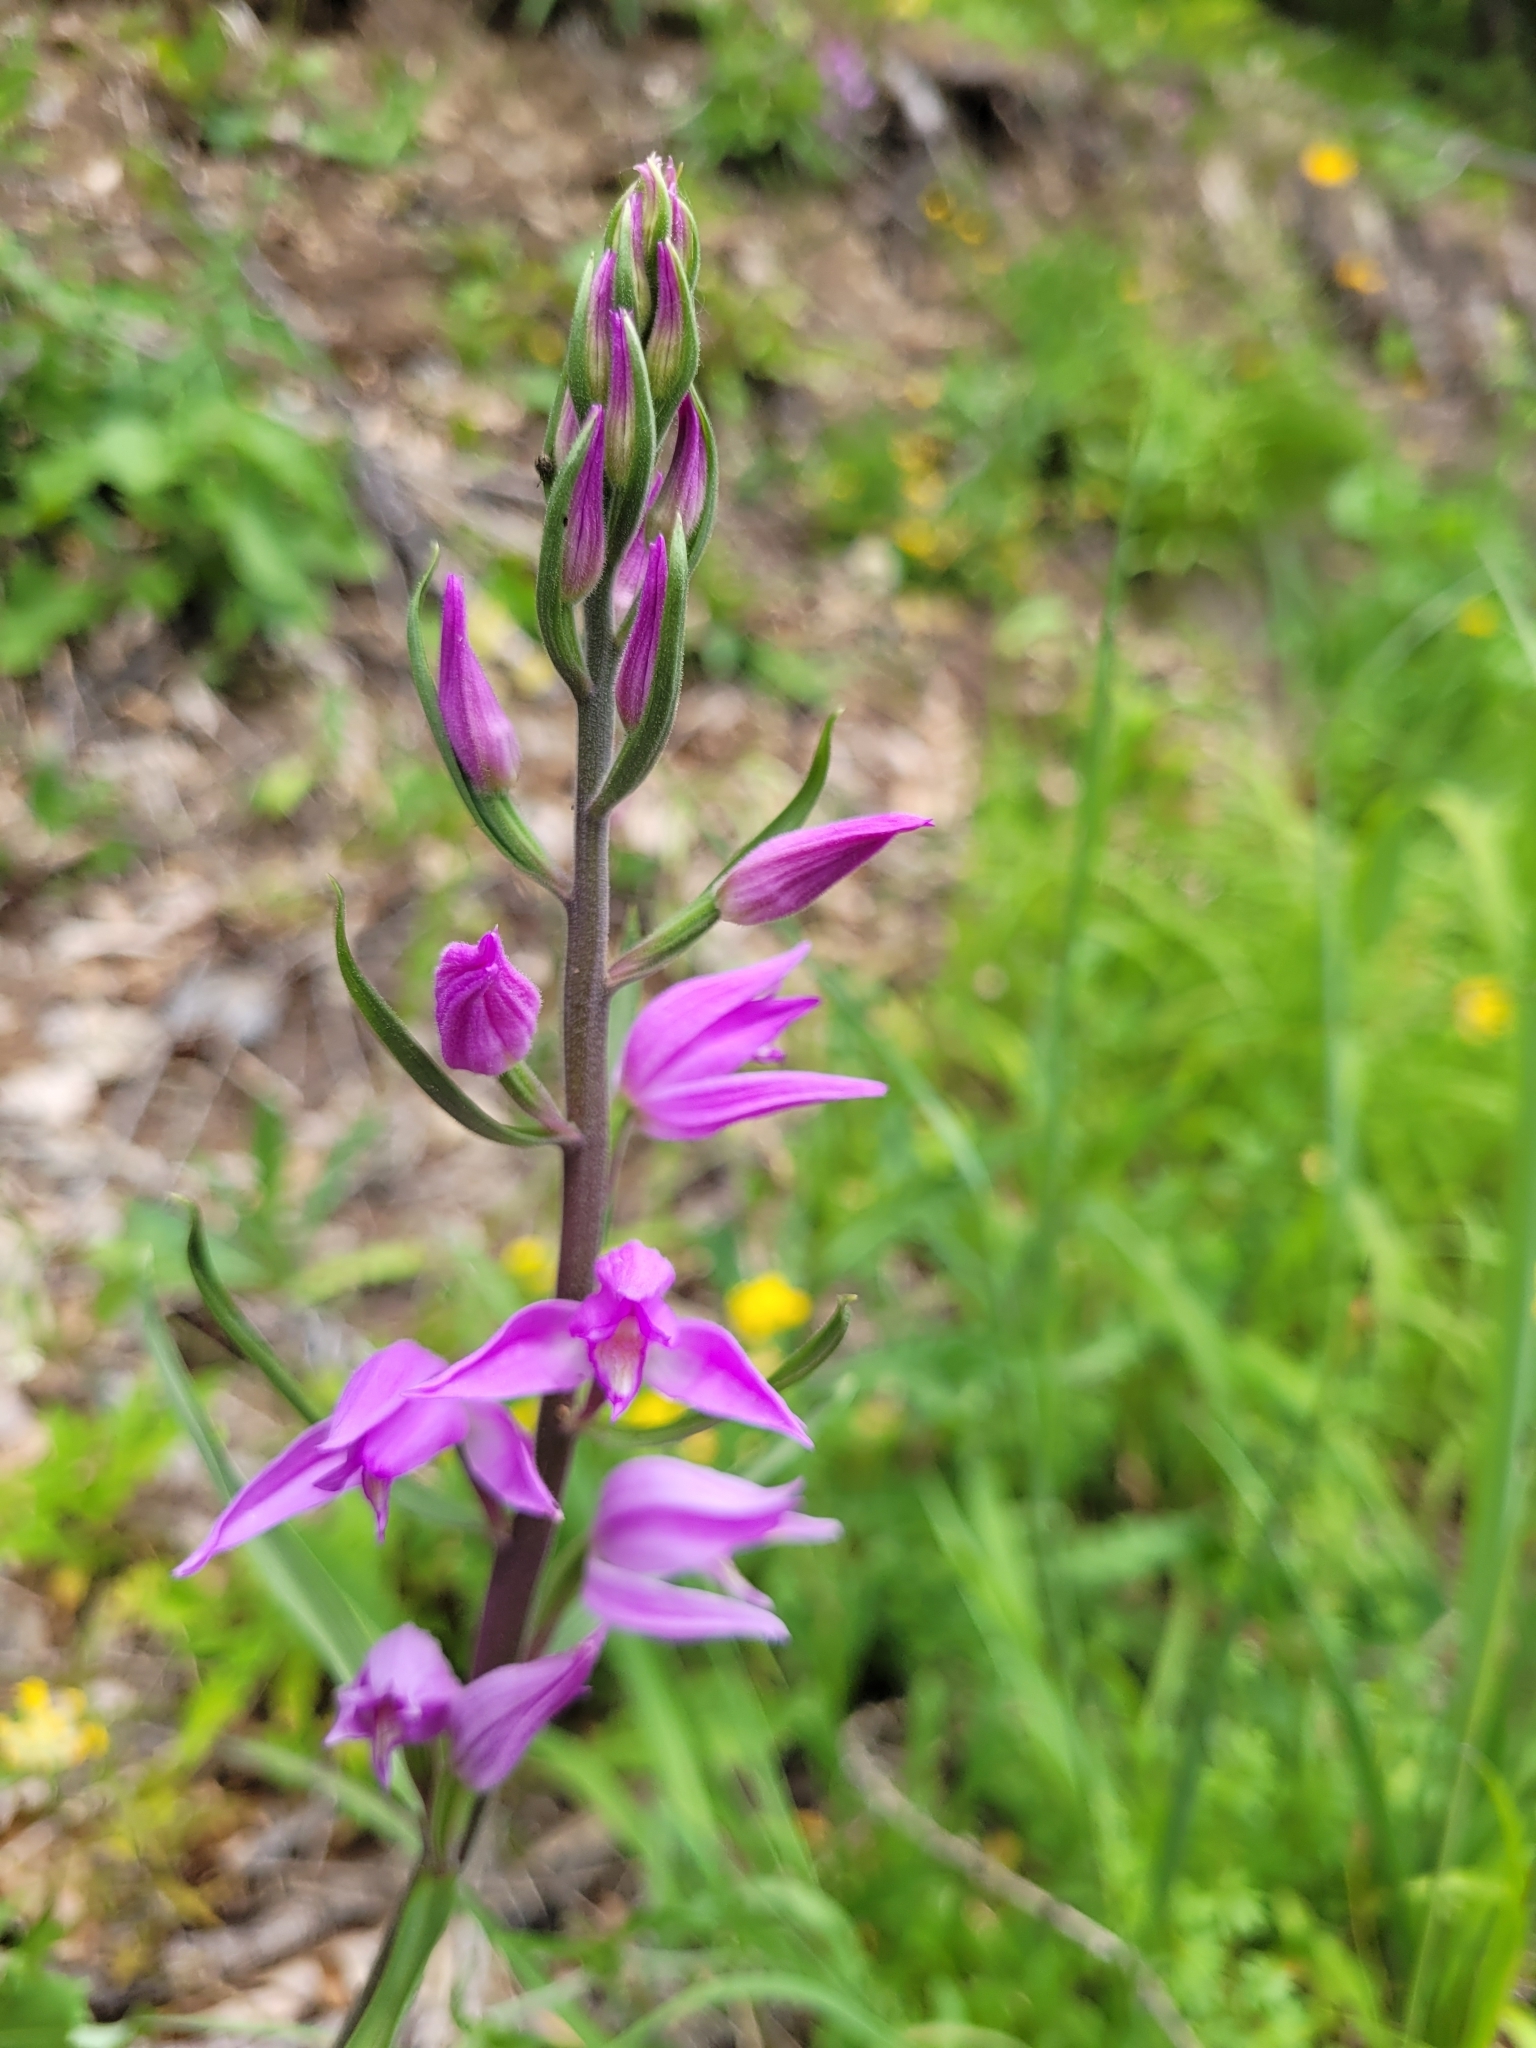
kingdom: Plantae
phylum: Tracheophyta
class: Liliopsida
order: Asparagales
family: Orchidaceae
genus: Cephalanthera
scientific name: Cephalanthera rubra
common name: Red helleborine
